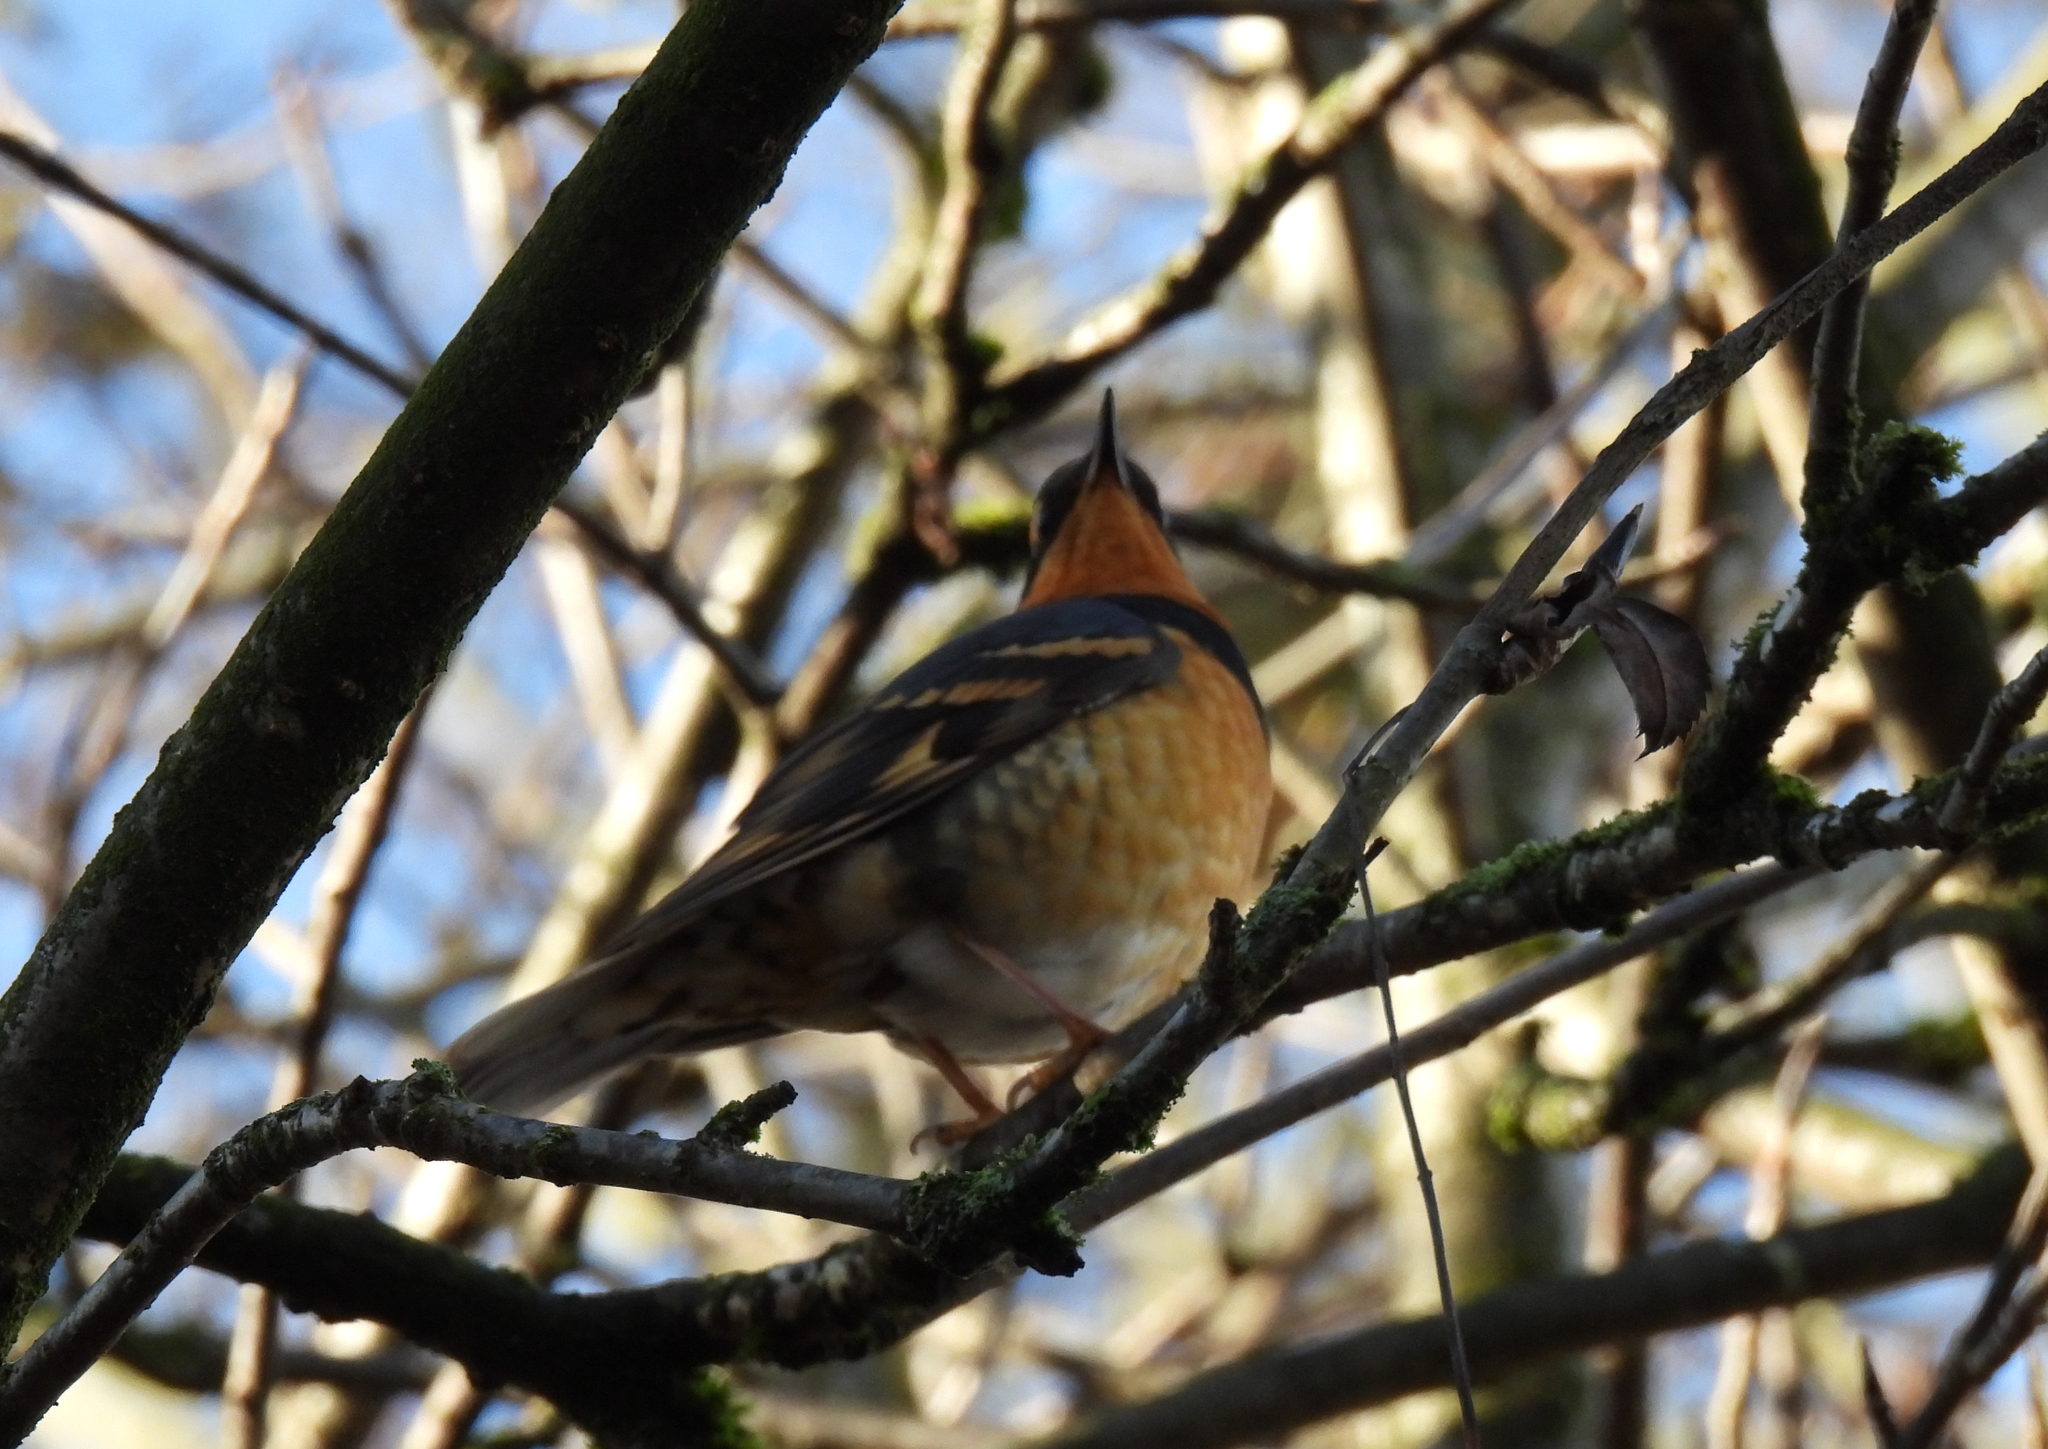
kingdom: Animalia
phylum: Chordata
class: Aves
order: Passeriformes
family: Turdidae
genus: Ixoreus
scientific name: Ixoreus naevius
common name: Varied thrush
